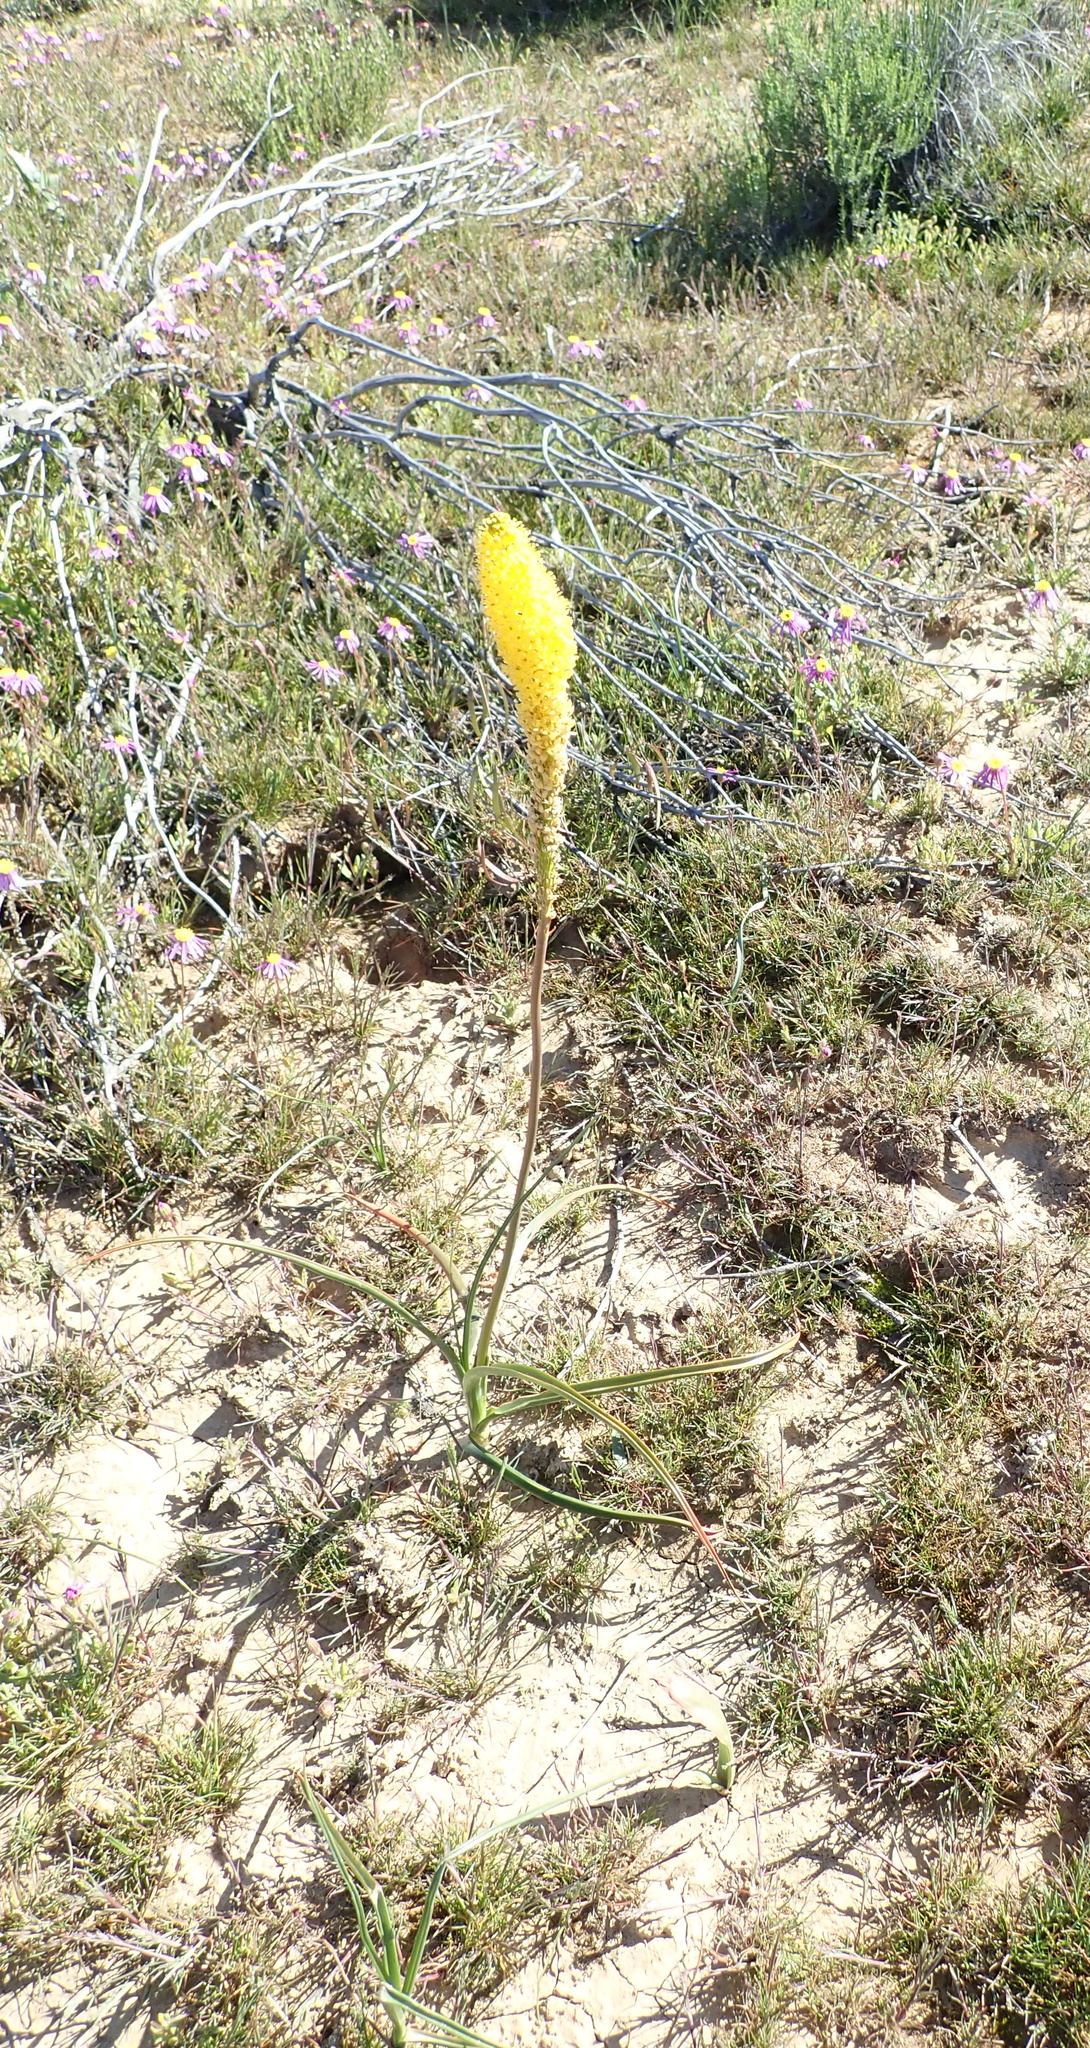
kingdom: Plantae
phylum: Tracheophyta
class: Liliopsida
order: Asparagales
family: Asphodelaceae
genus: Bulbinella
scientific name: Bulbinella nutans
